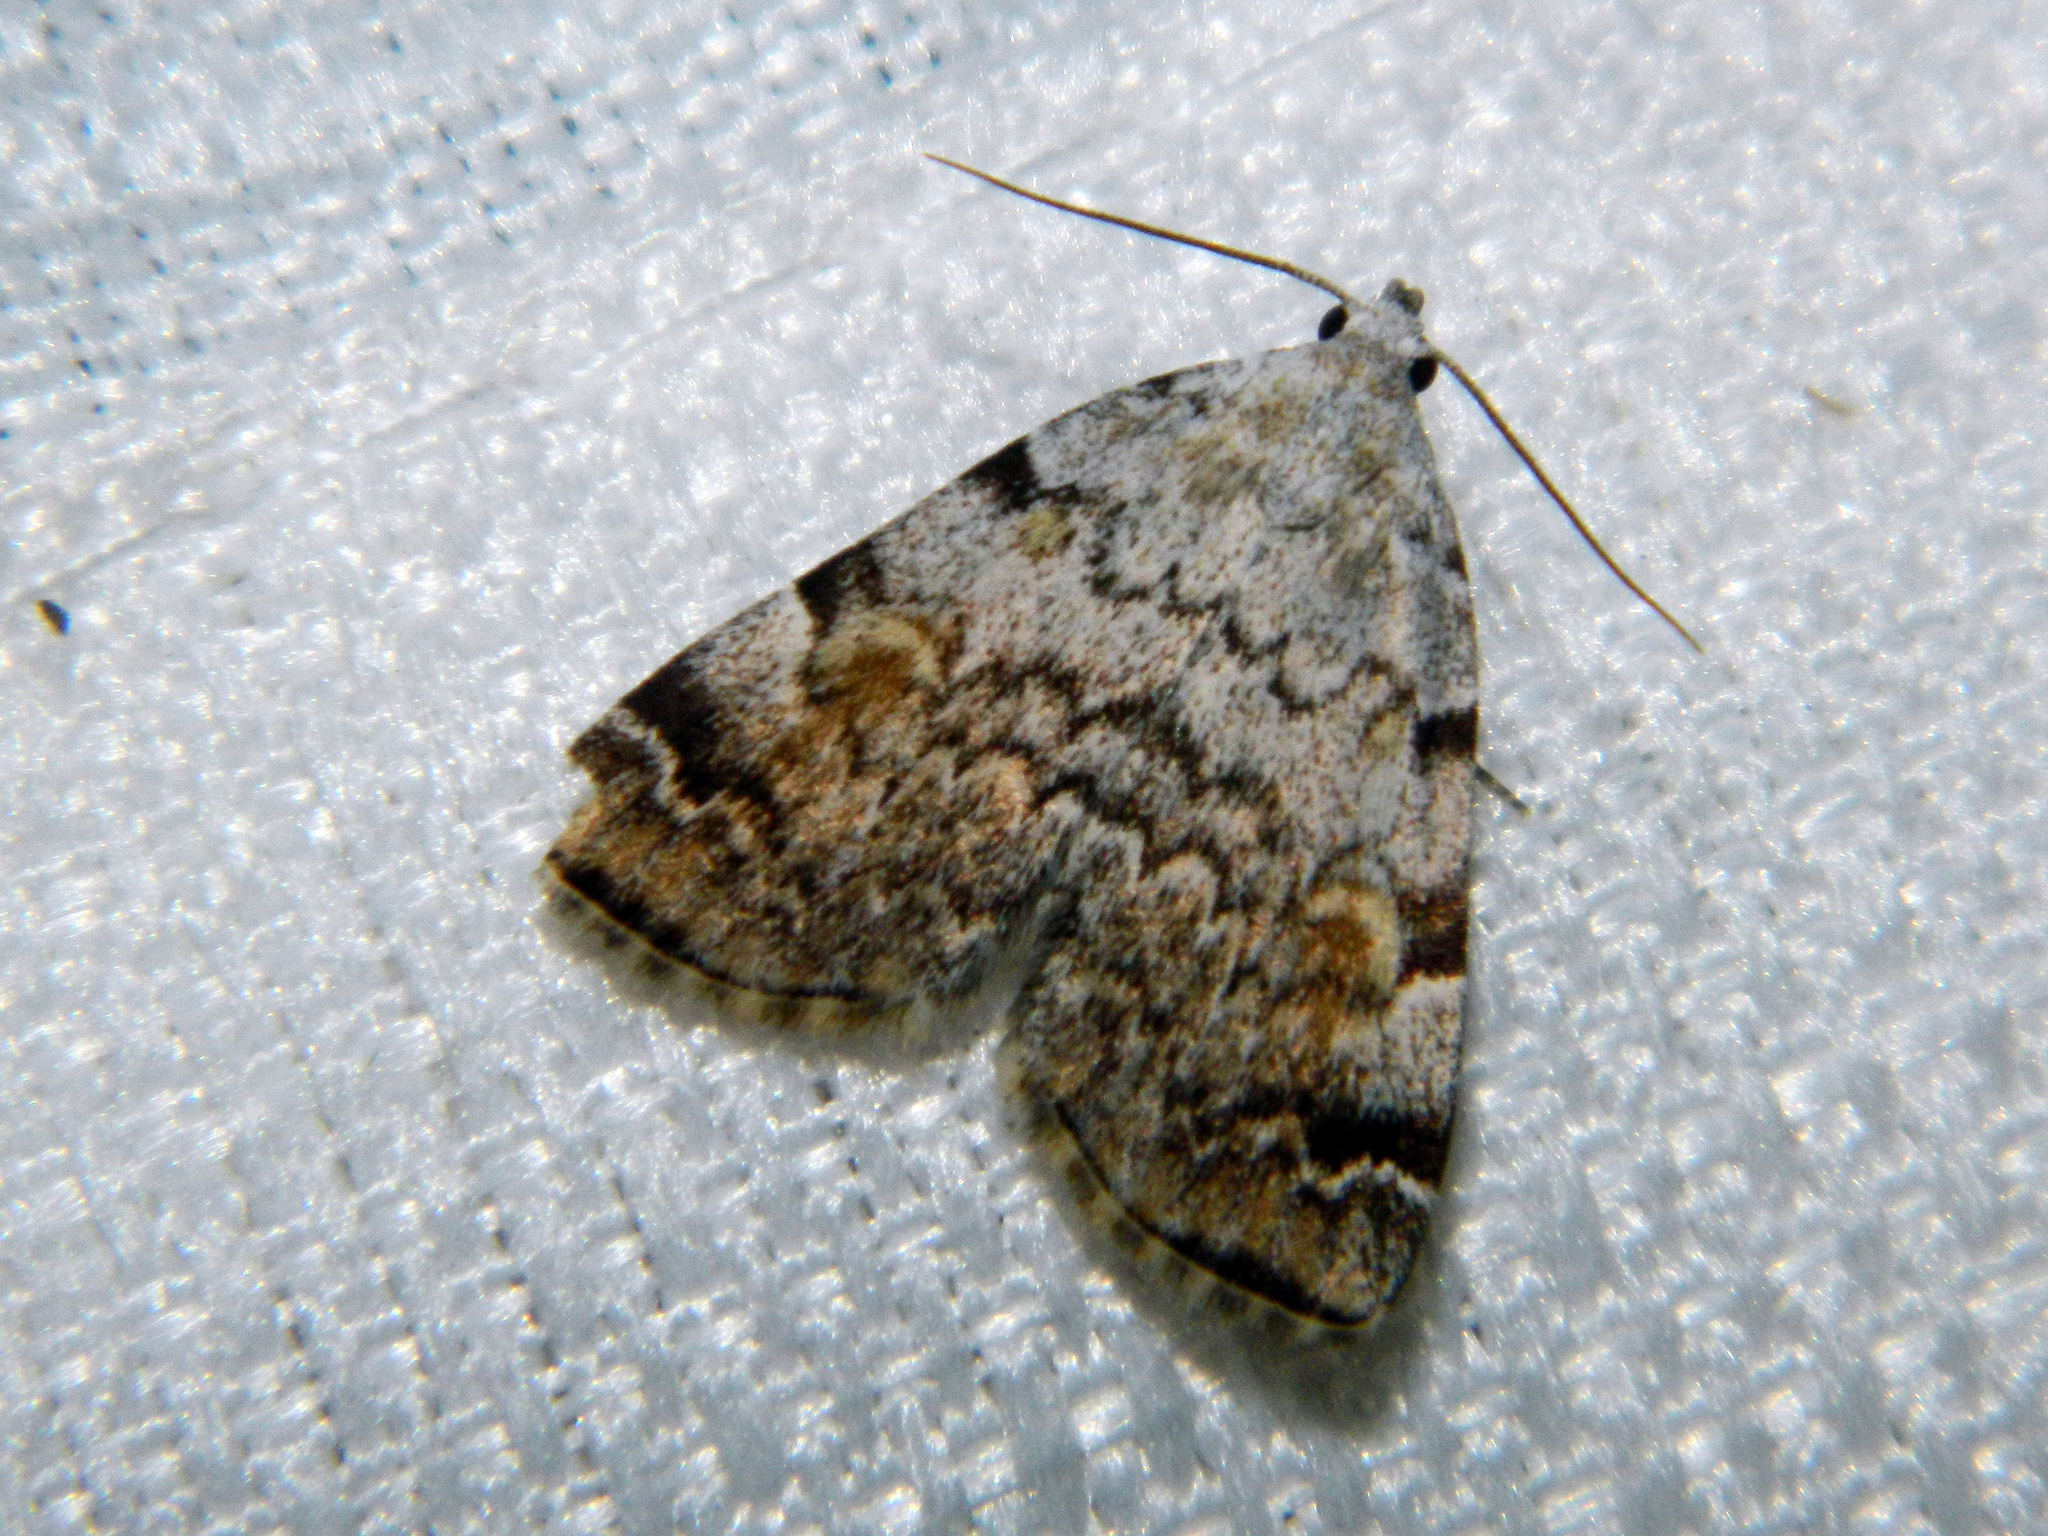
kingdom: Animalia
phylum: Arthropoda
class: Insecta
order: Lepidoptera
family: Erebidae
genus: Idia
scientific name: Idia americalis
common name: American idia moth
